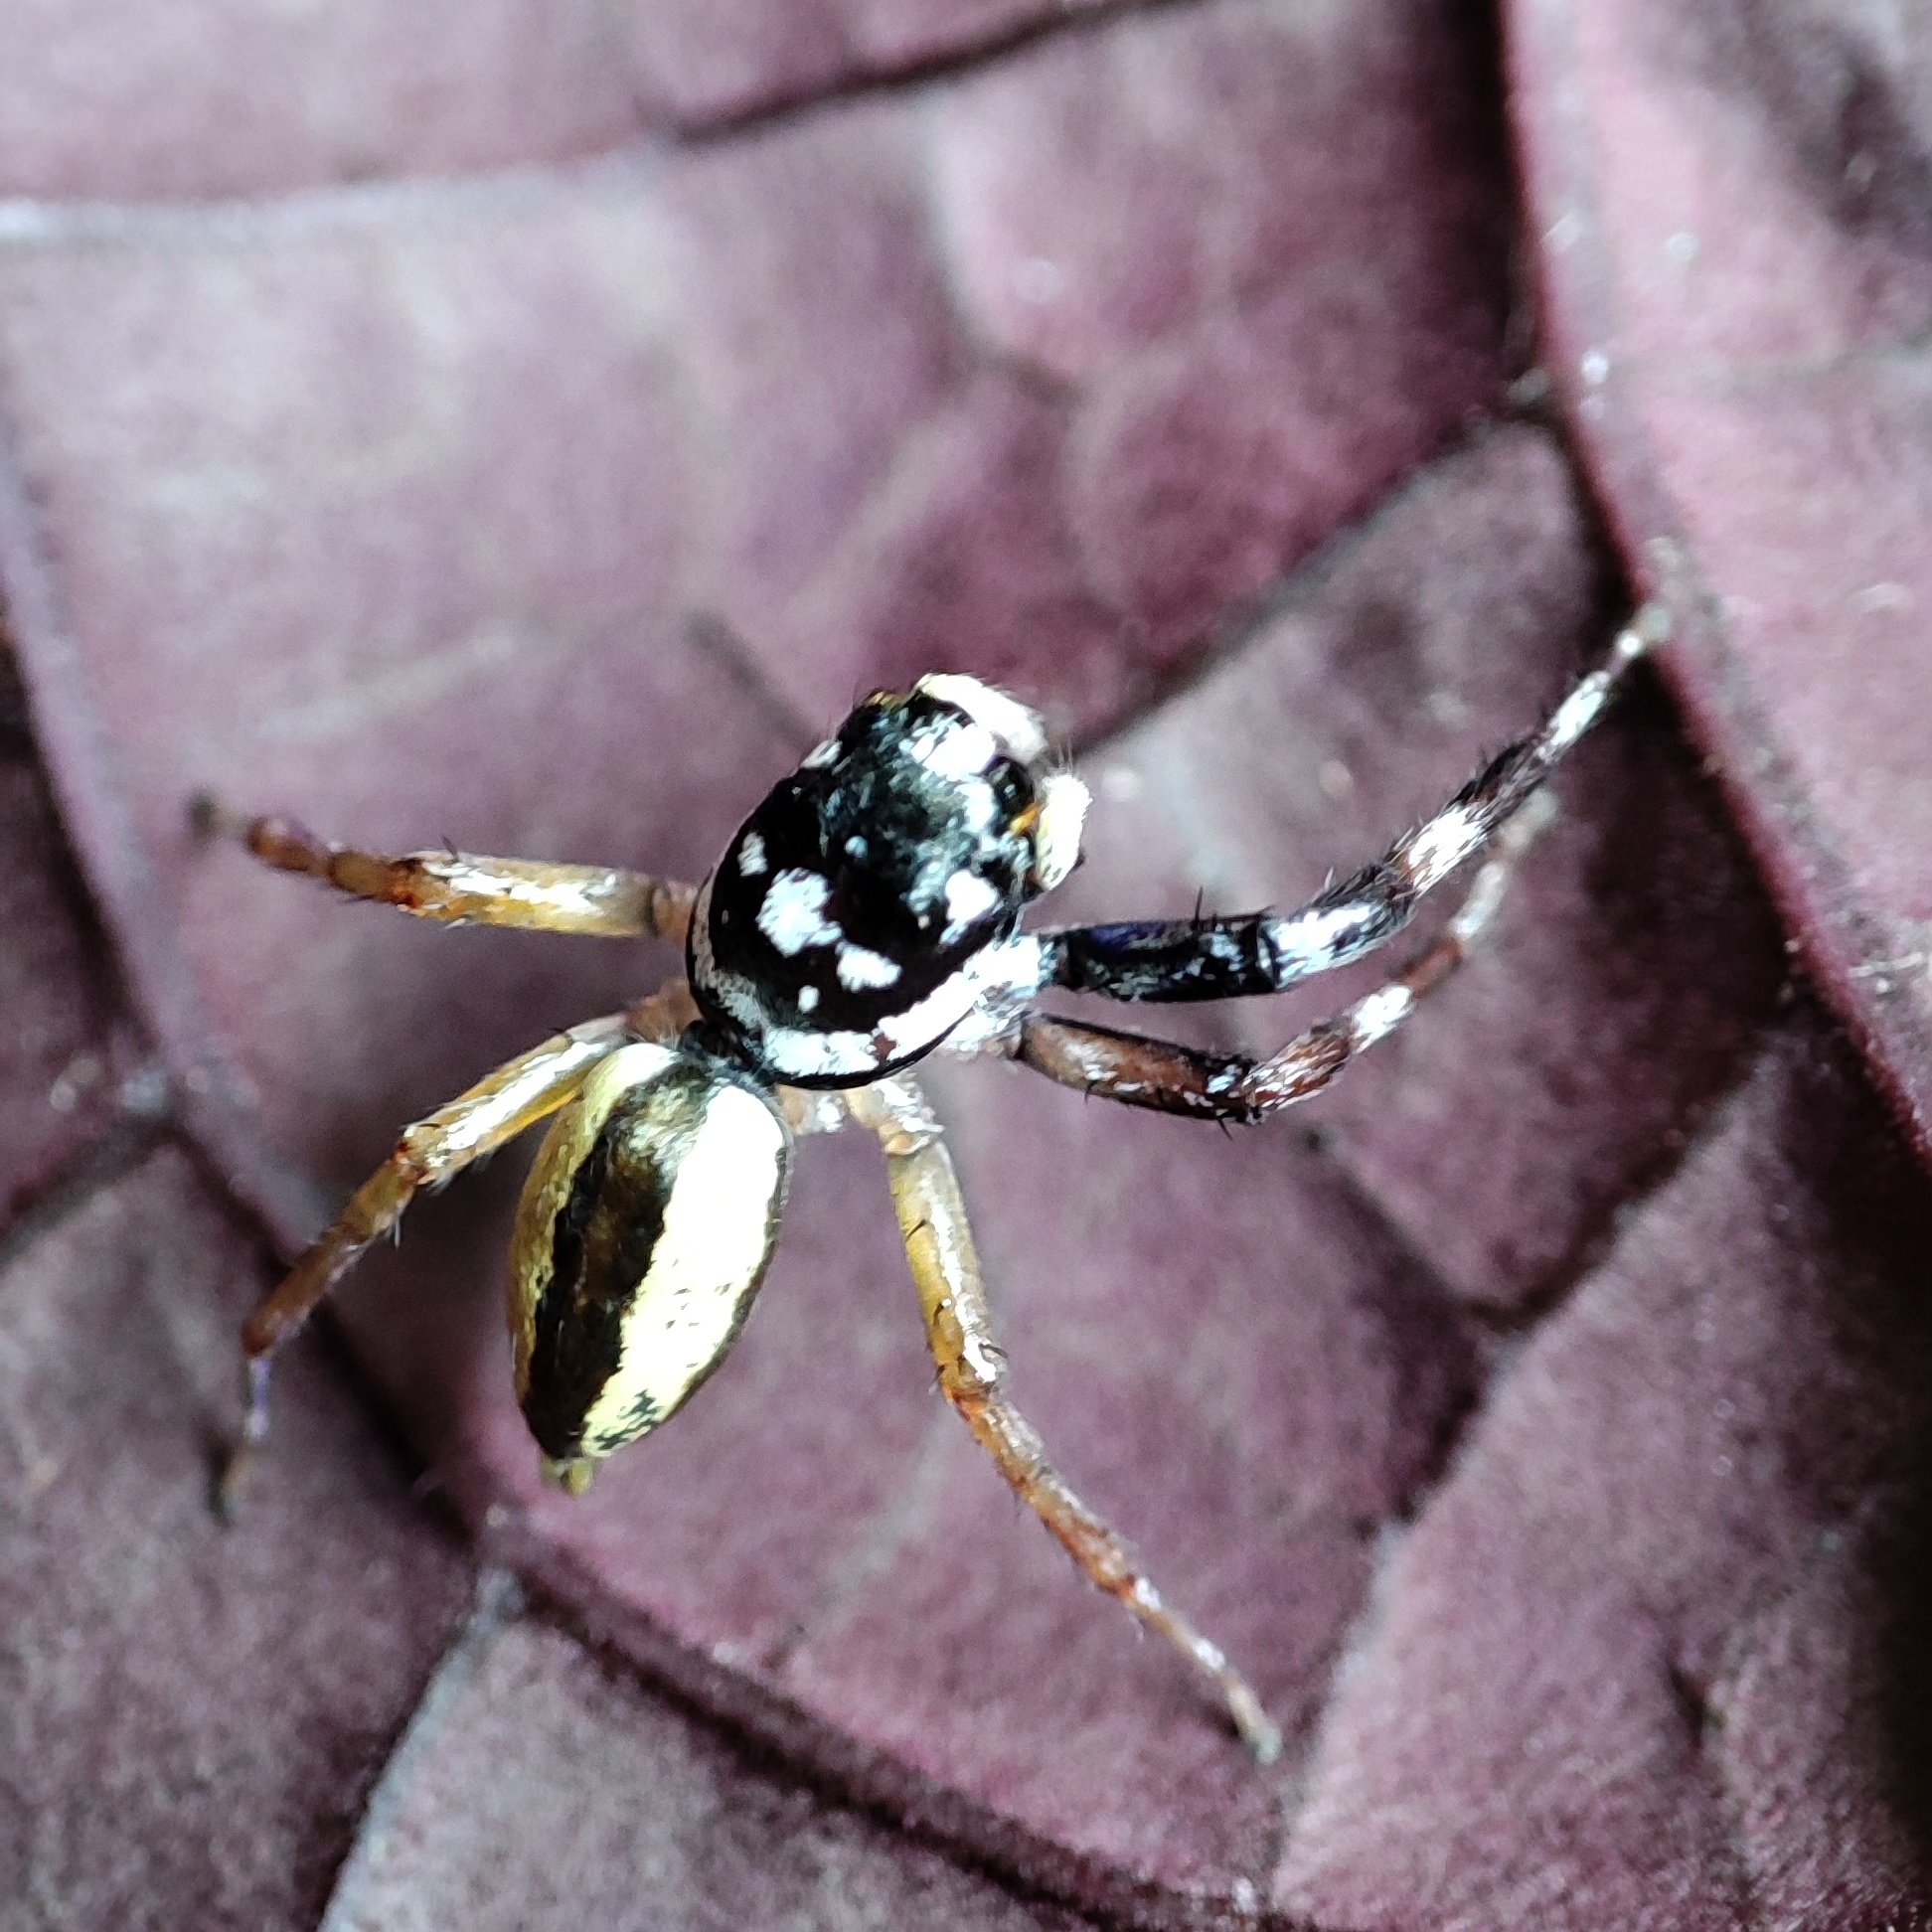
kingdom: Animalia
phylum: Arthropoda
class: Arachnida
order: Araneae
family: Salticidae
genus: Phintelloides
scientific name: Phintelloides versicolor
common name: Jumping spider
